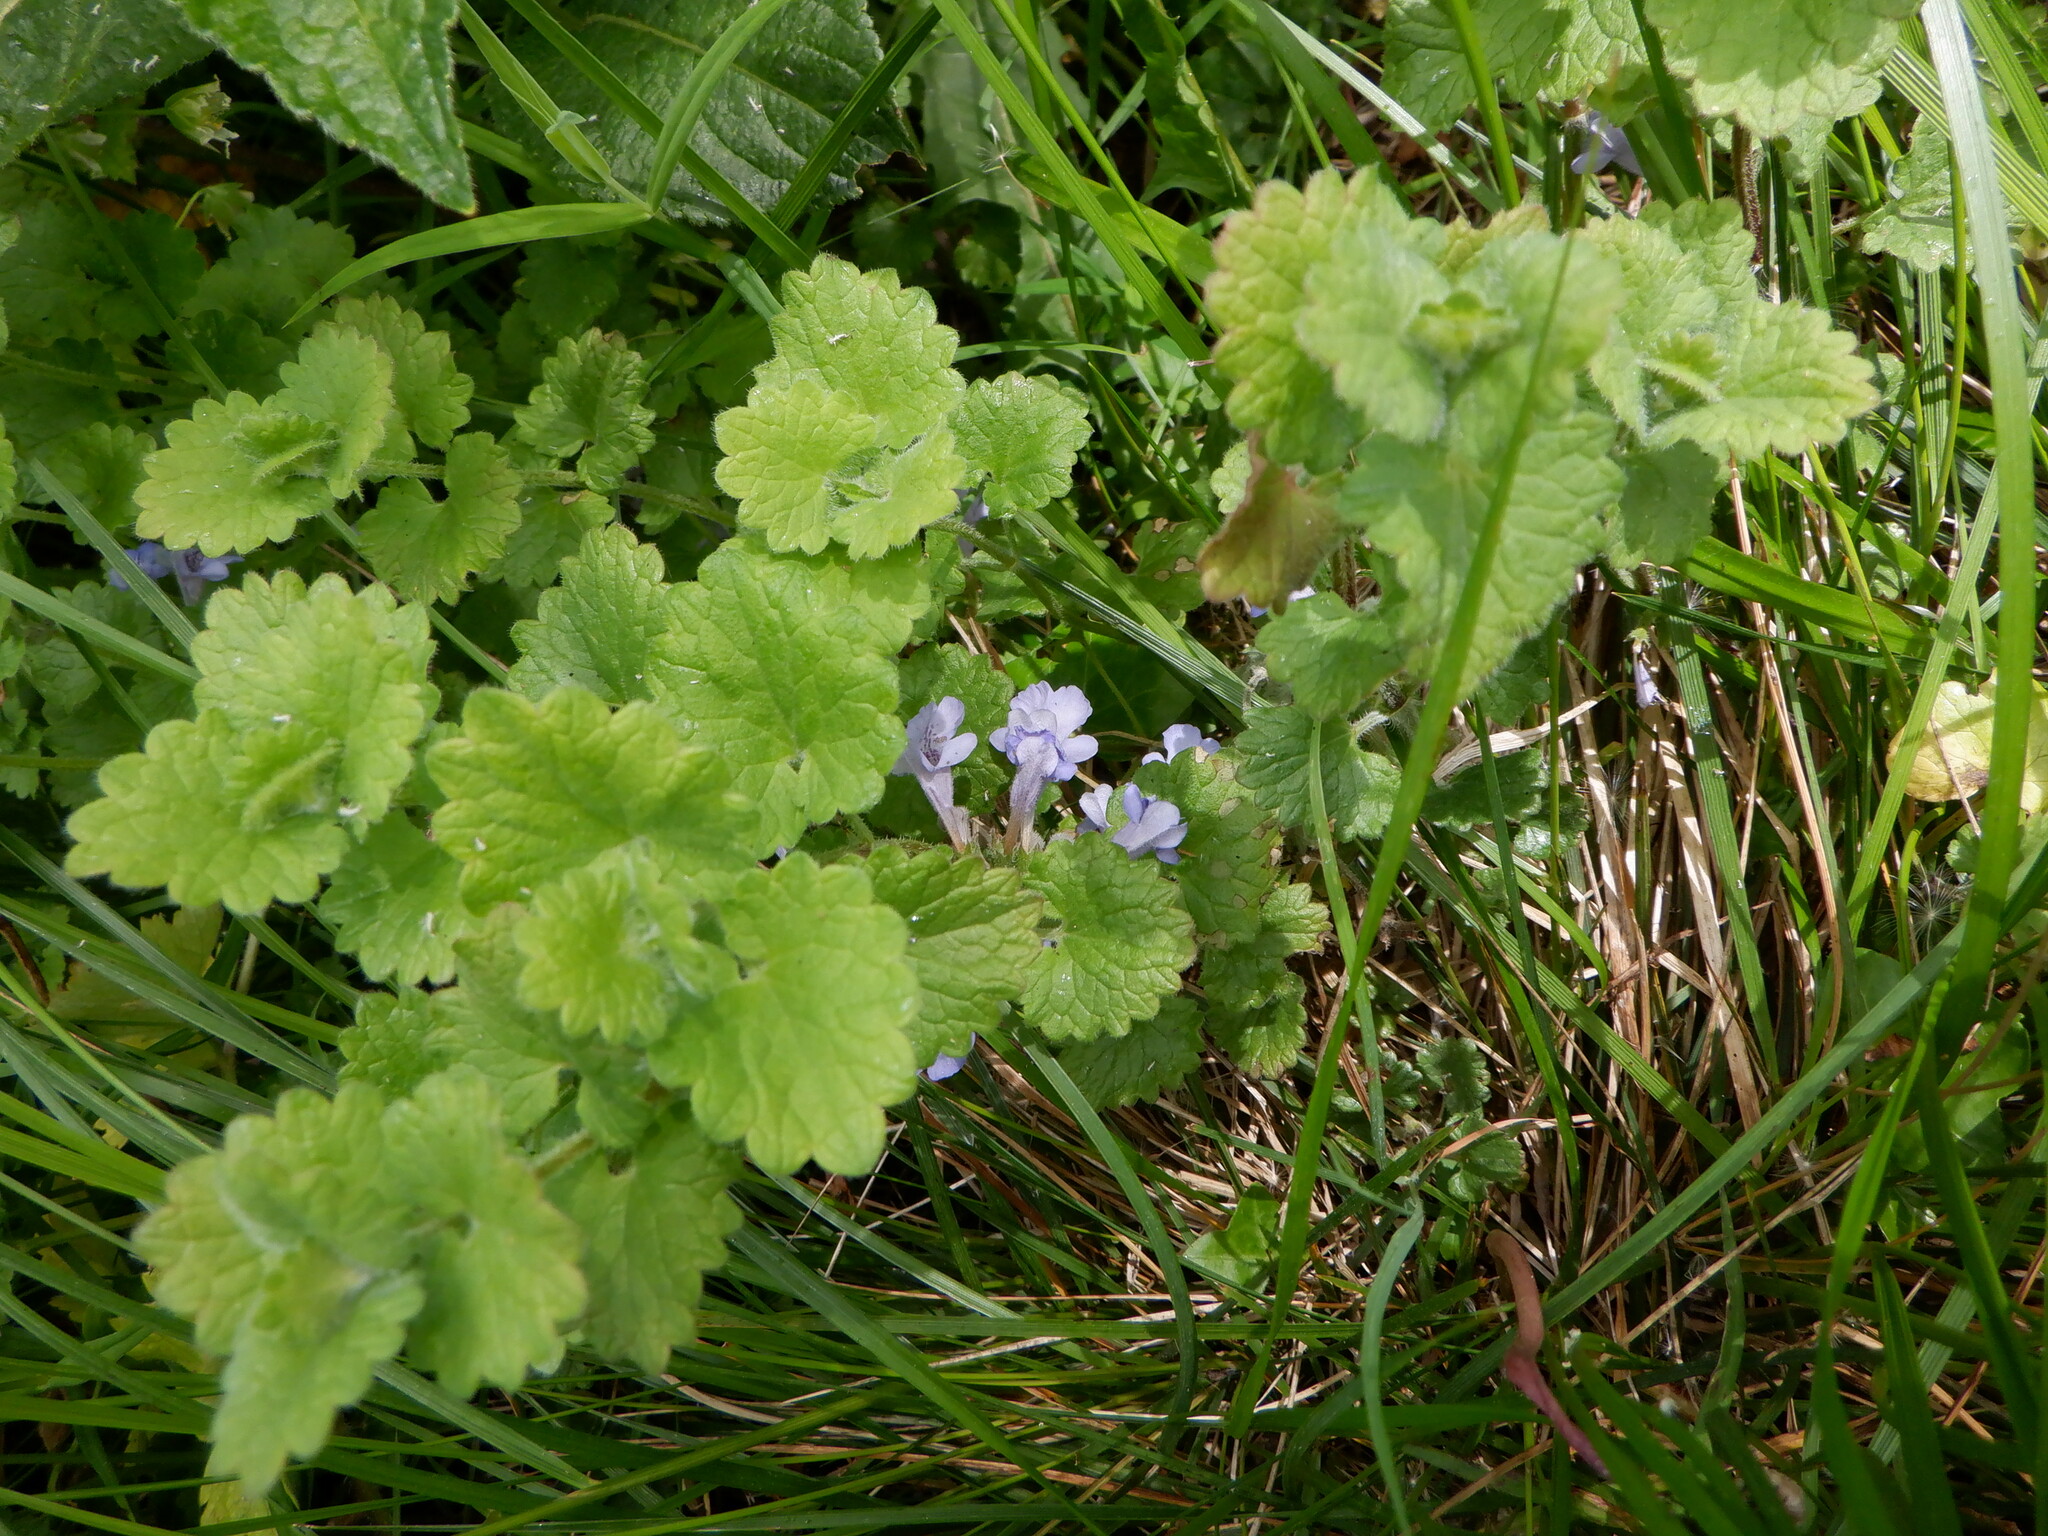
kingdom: Plantae
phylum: Tracheophyta
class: Magnoliopsida
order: Lamiales
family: Lamiaceae
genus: Glechoma
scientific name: Glechoma hederacea
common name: Ground ivy
